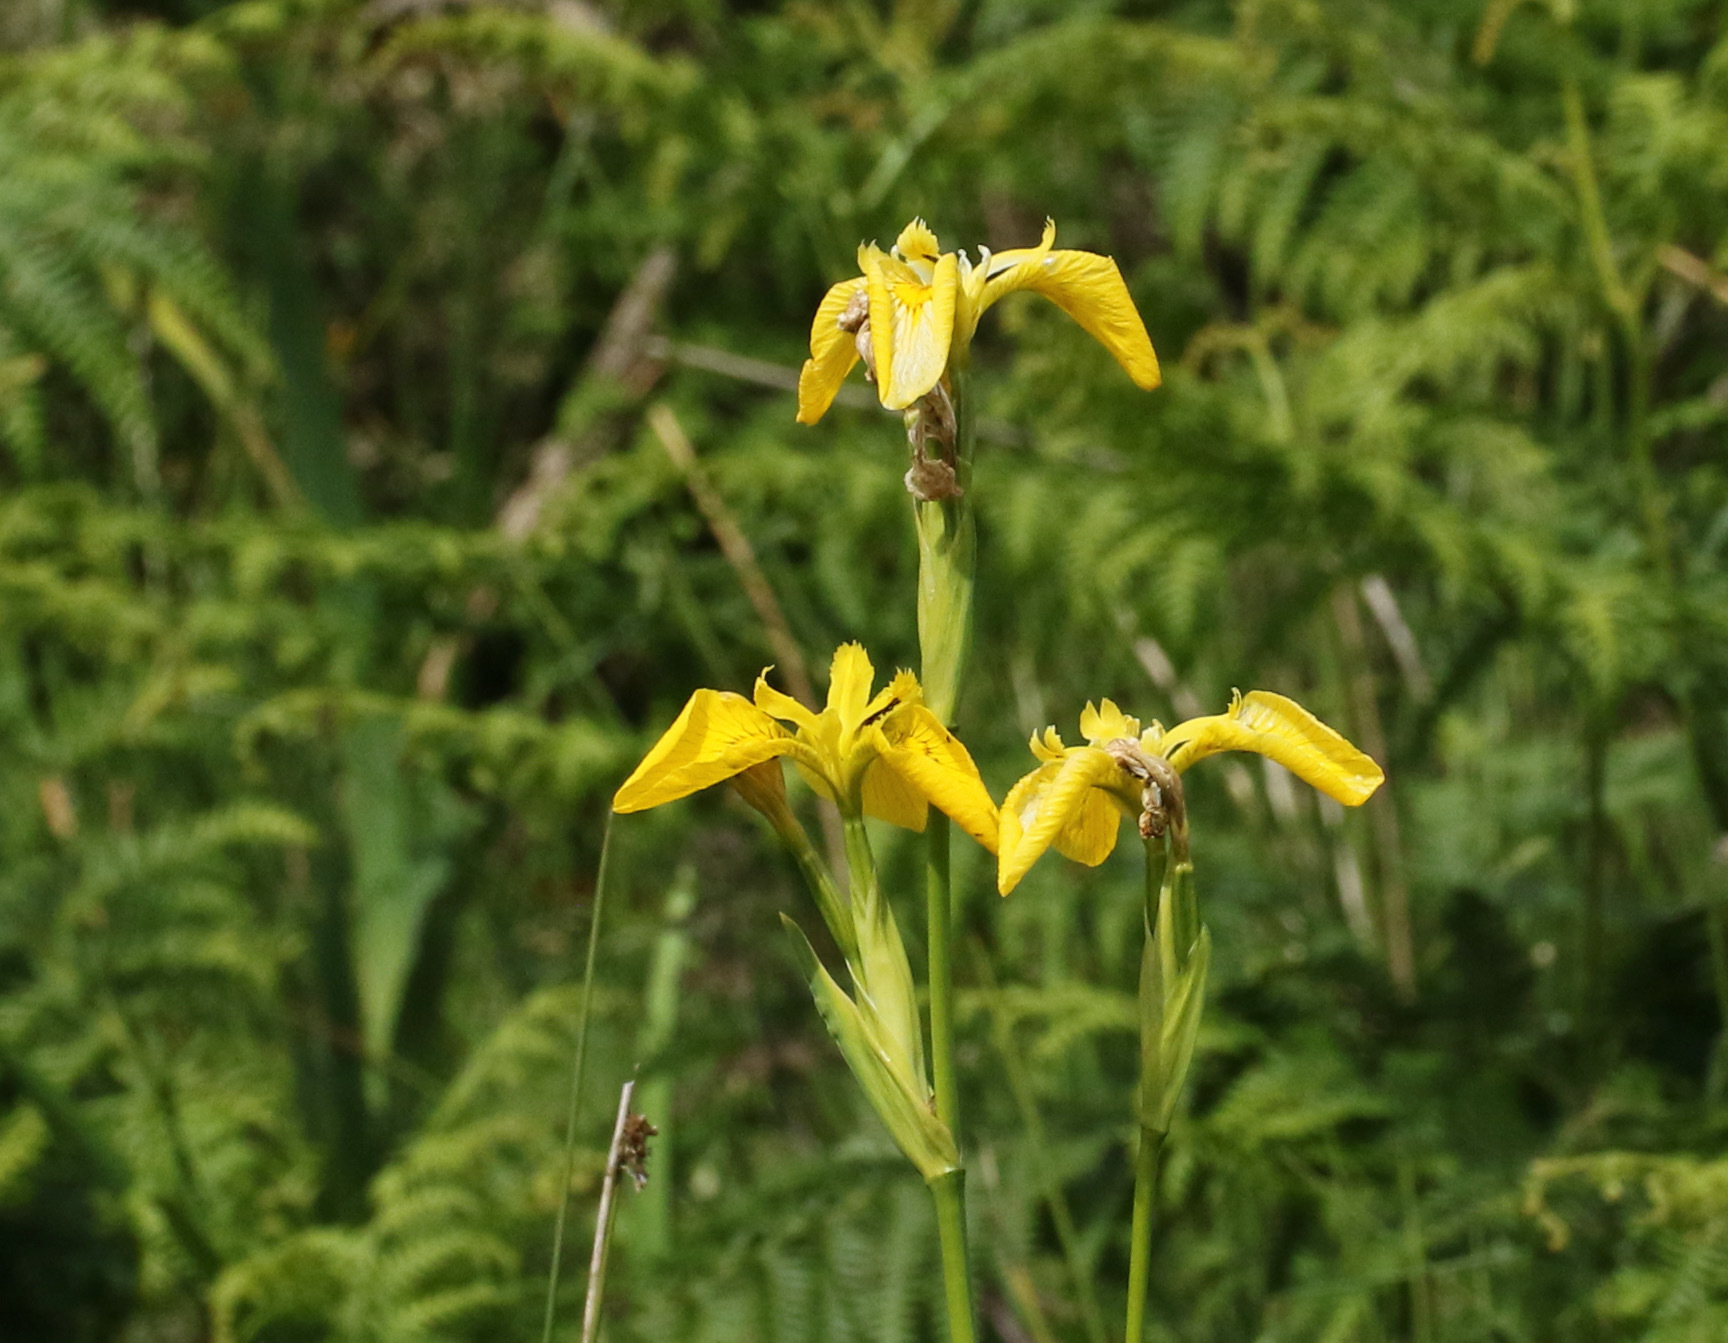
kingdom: Plantae
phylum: Tracheophyta
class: Liliopsida
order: Asparagales
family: Iridaceae
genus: Iris
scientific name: Iris pseudacorus
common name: Yellow flag
